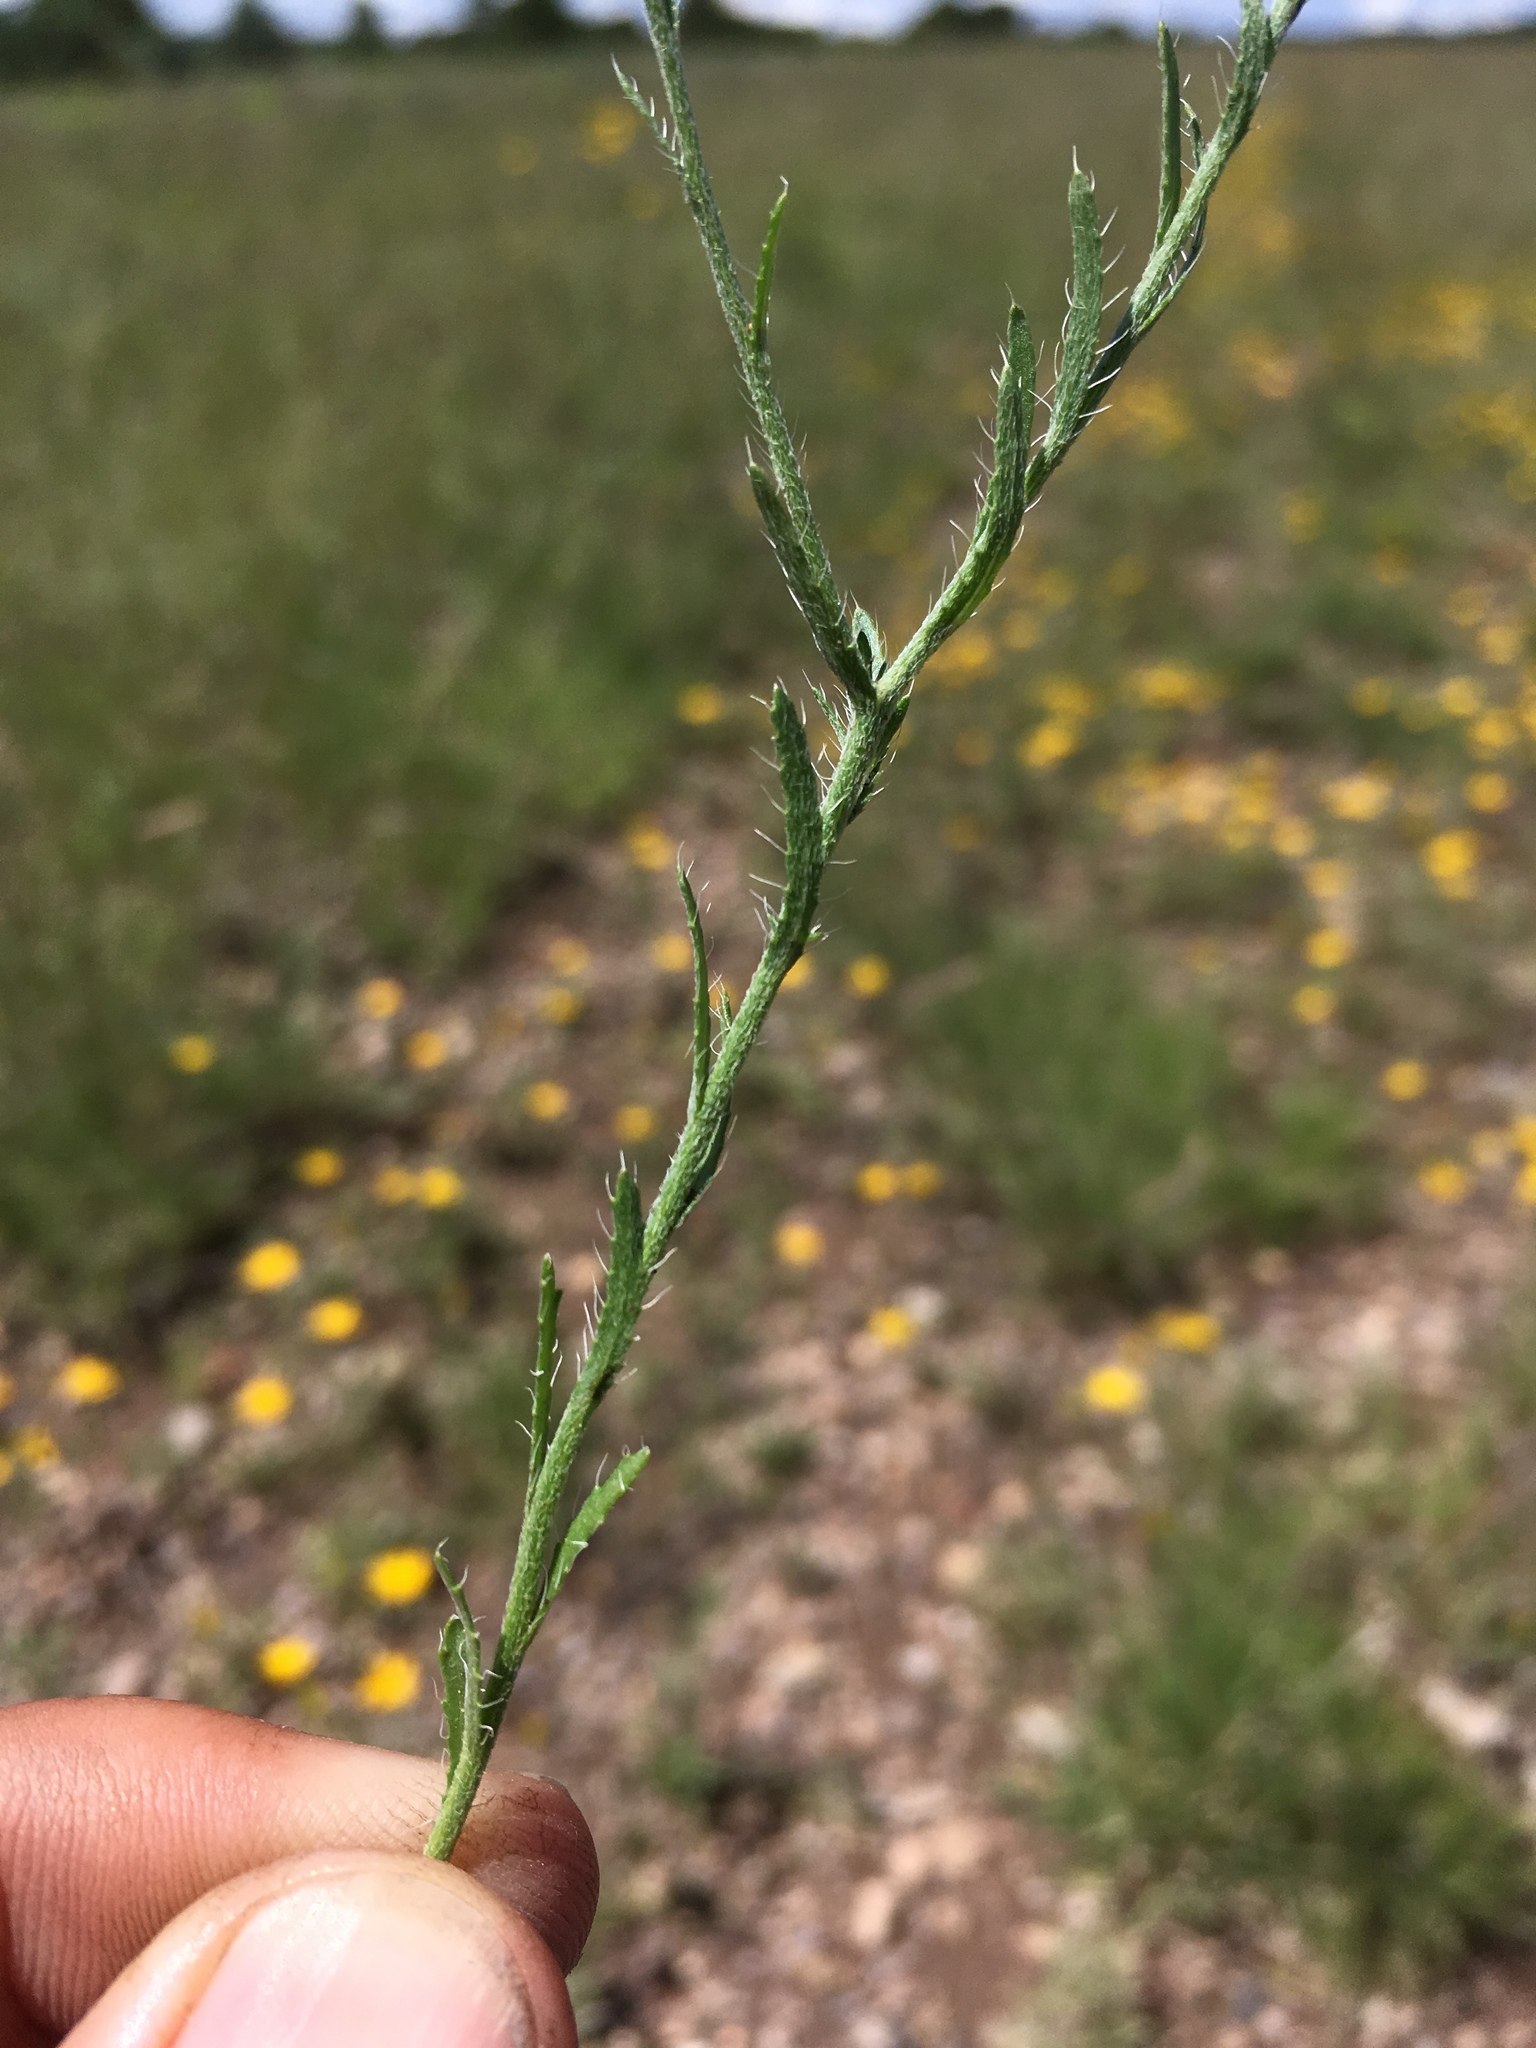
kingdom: Plantae
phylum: Tracheophyta
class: Magnoliopsida
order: Asterales
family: Asteraceae
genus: Xanthisma
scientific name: Xanthisma gracile
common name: Slender goldenweed
